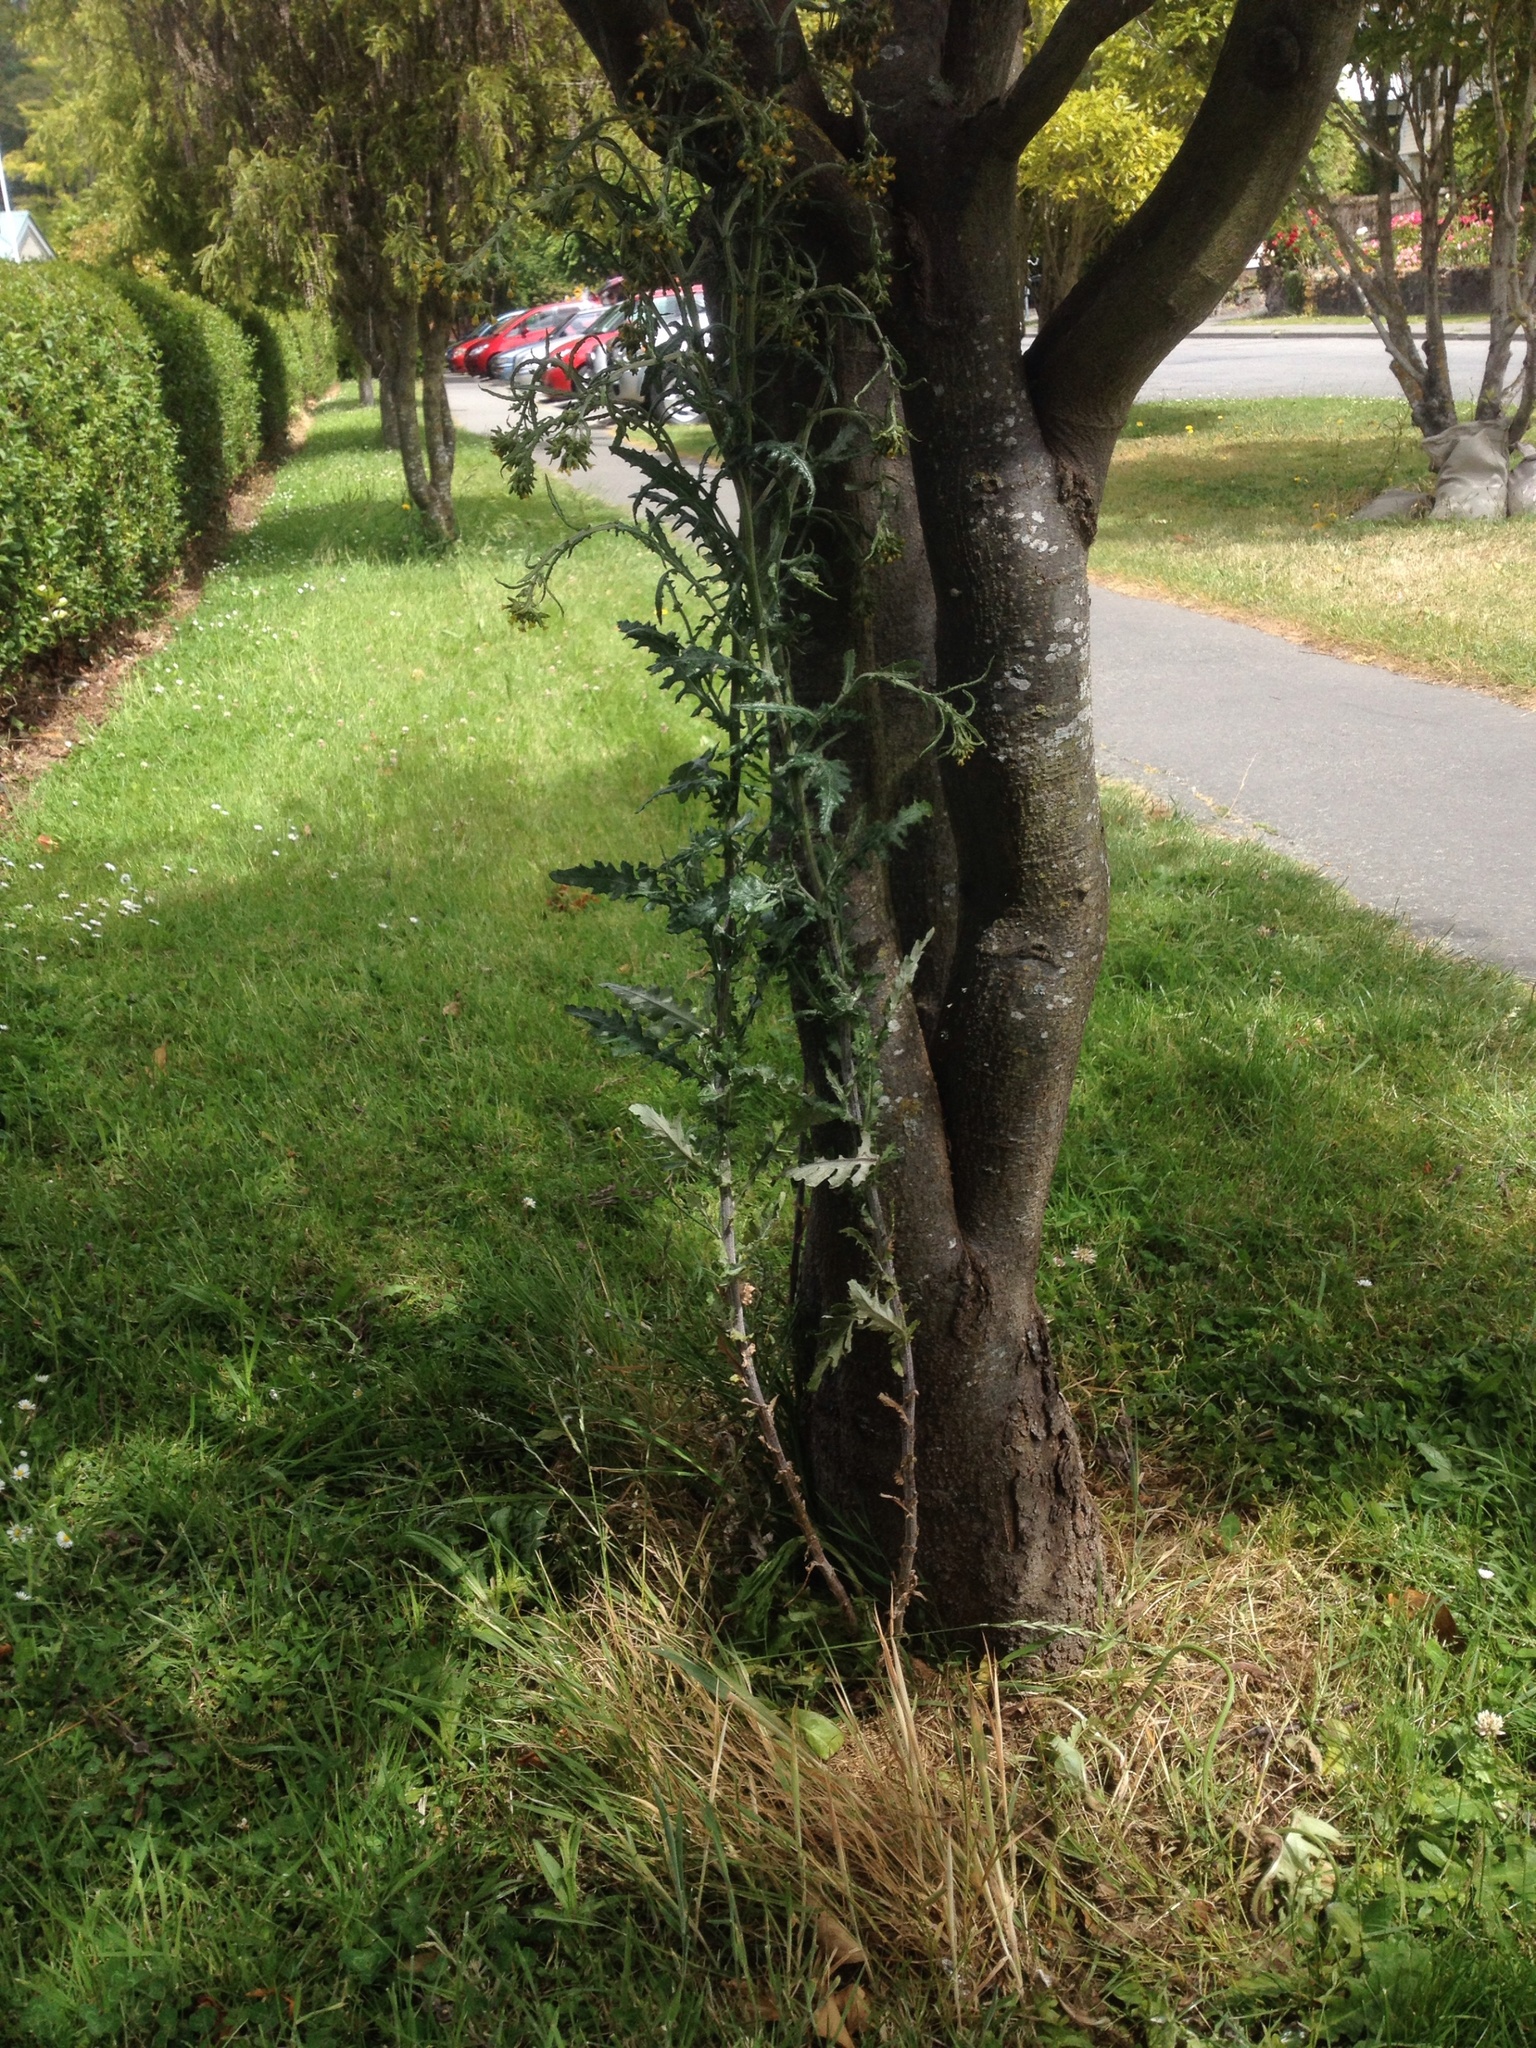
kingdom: Plantae
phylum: Tracheophyta
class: Magnoliopsida
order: Asterales
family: Asteraceae
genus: Senecio
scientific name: Senecio glomeratus
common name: Cutleaf burnweed
